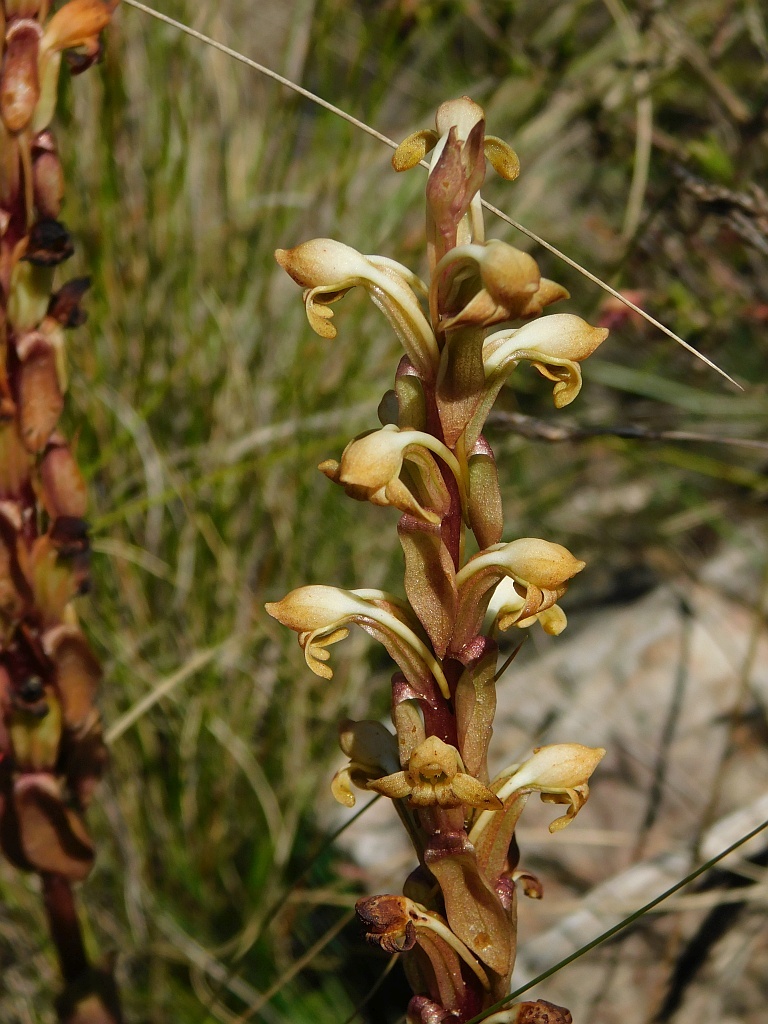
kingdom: Plantae
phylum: Tracheophyta
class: Liliopsida
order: Asparagales
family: Orchidaceae
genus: Satyrium
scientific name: Satyrium bicorne
